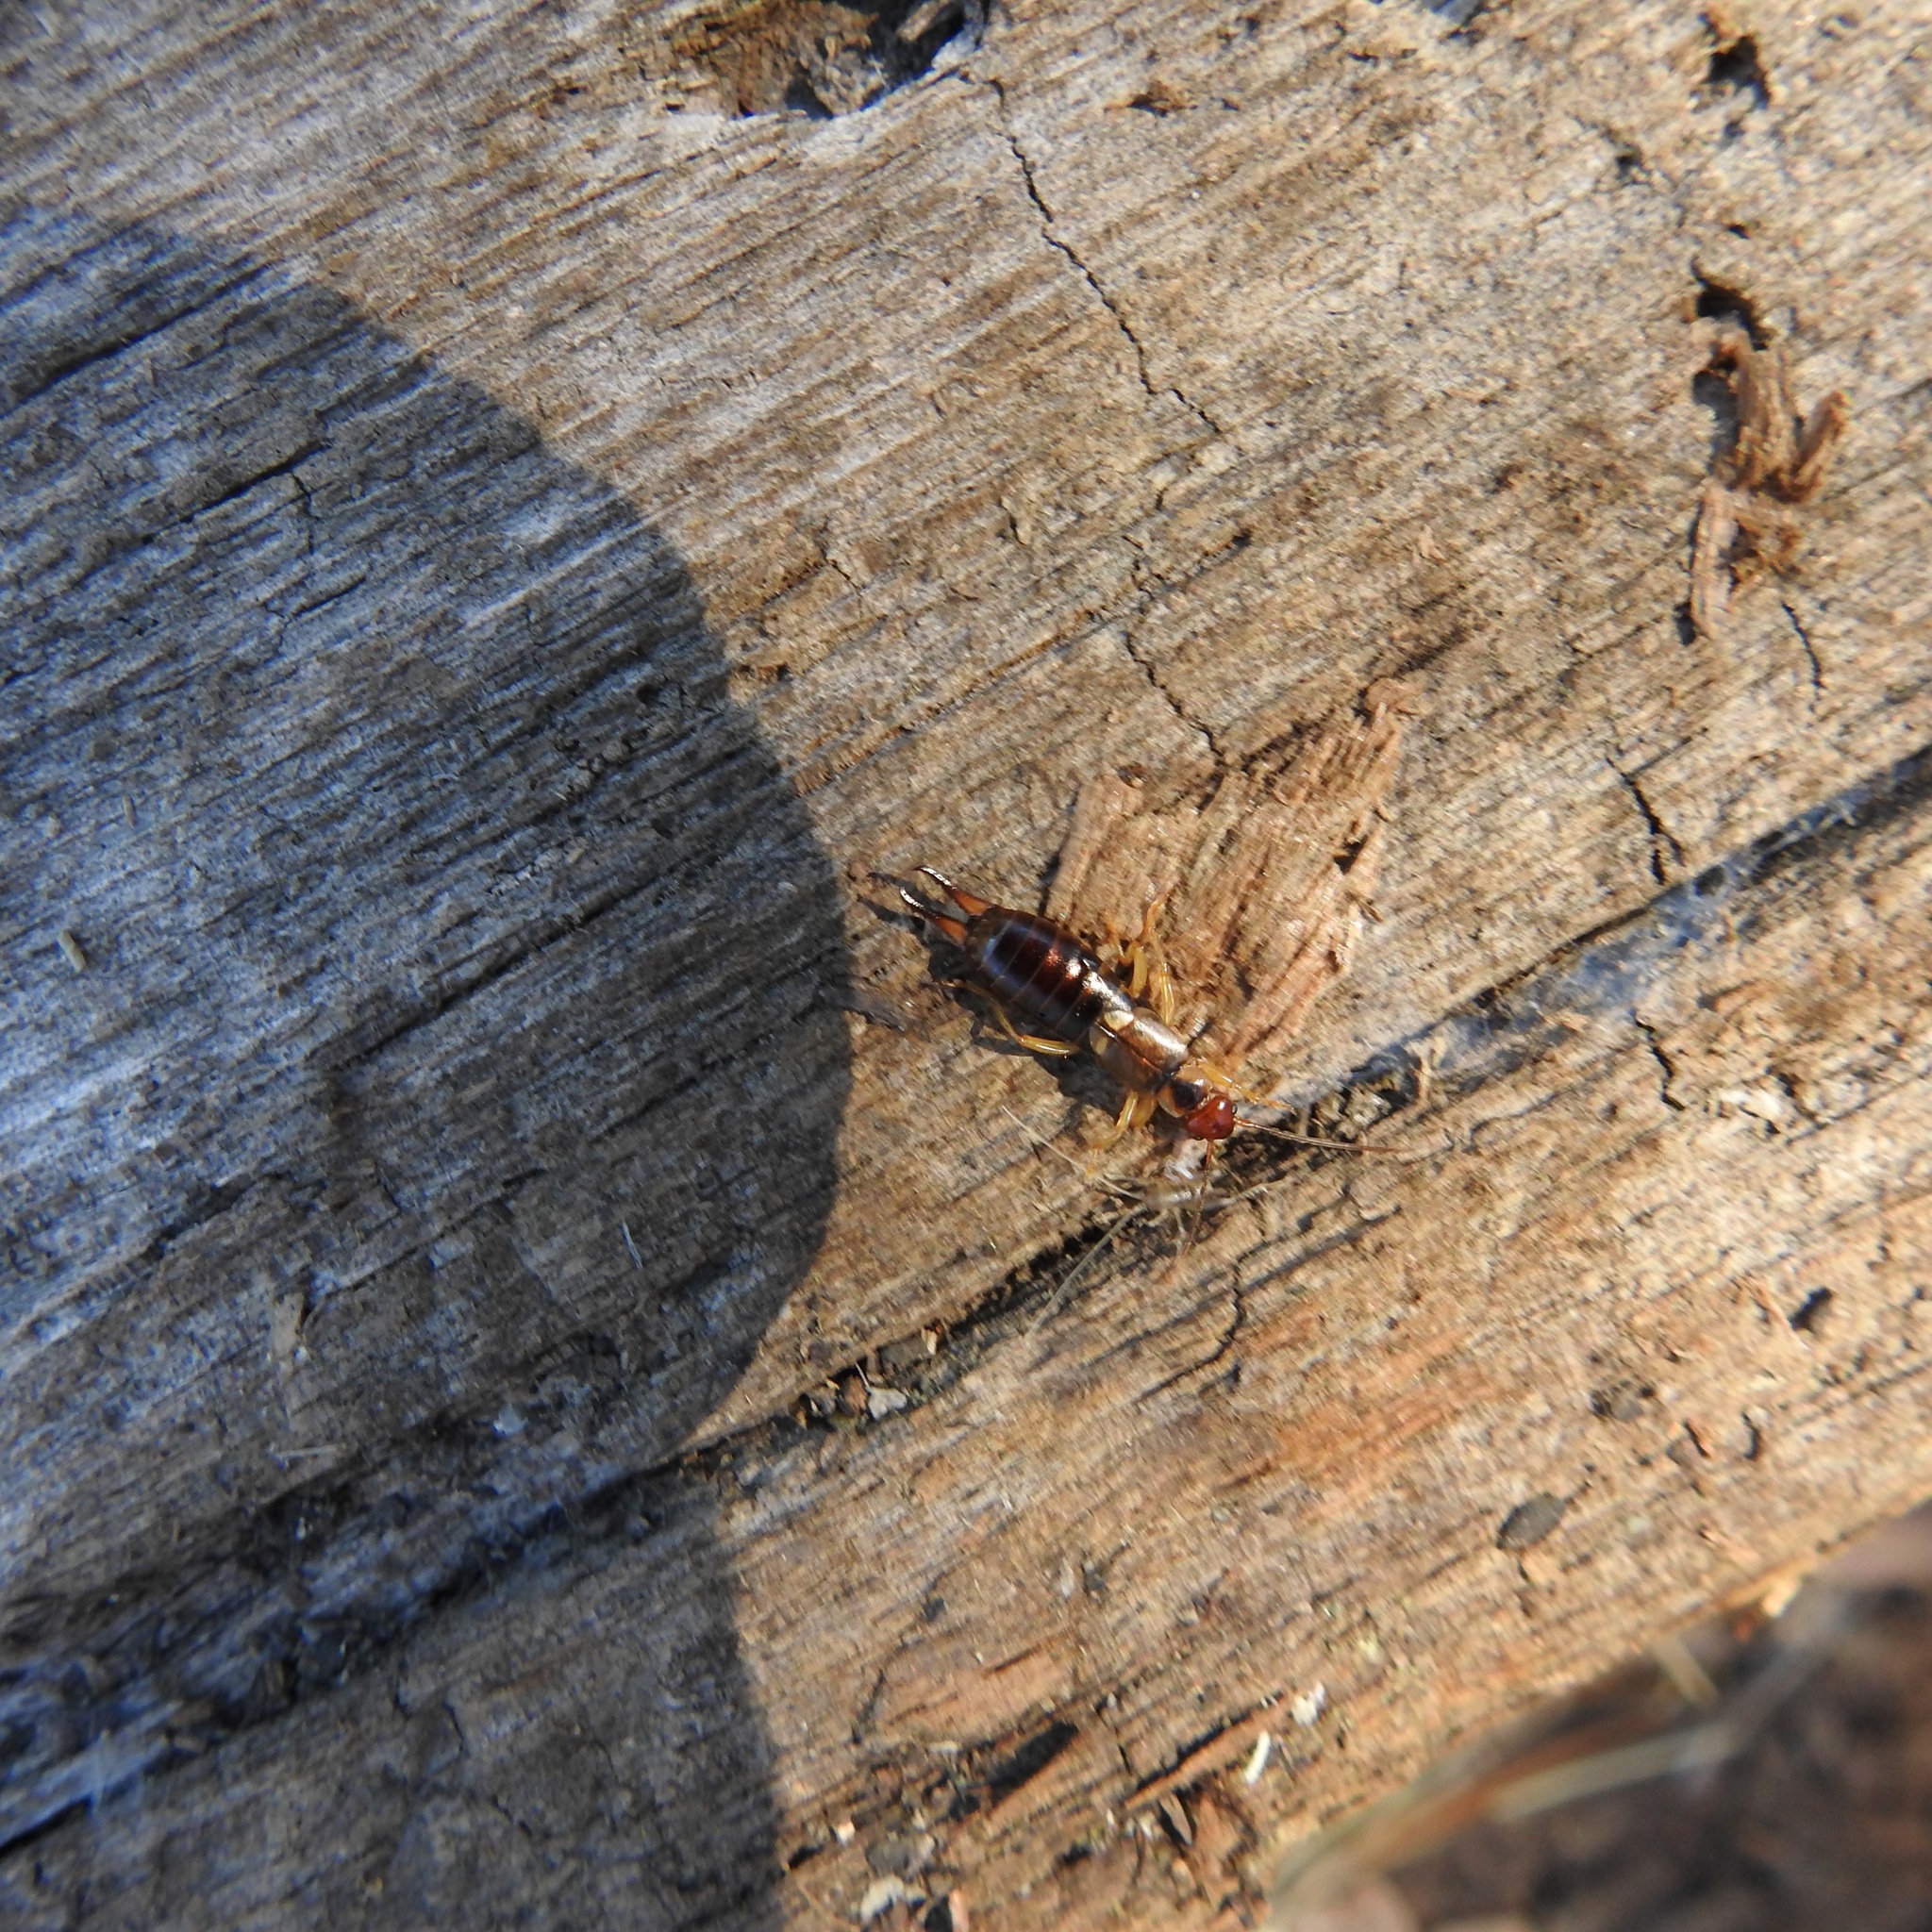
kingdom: Animalia
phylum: Arthropoda
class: Insecta
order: Dermaptera
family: Forficulidae
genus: Forficula
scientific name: Forficula dentata
